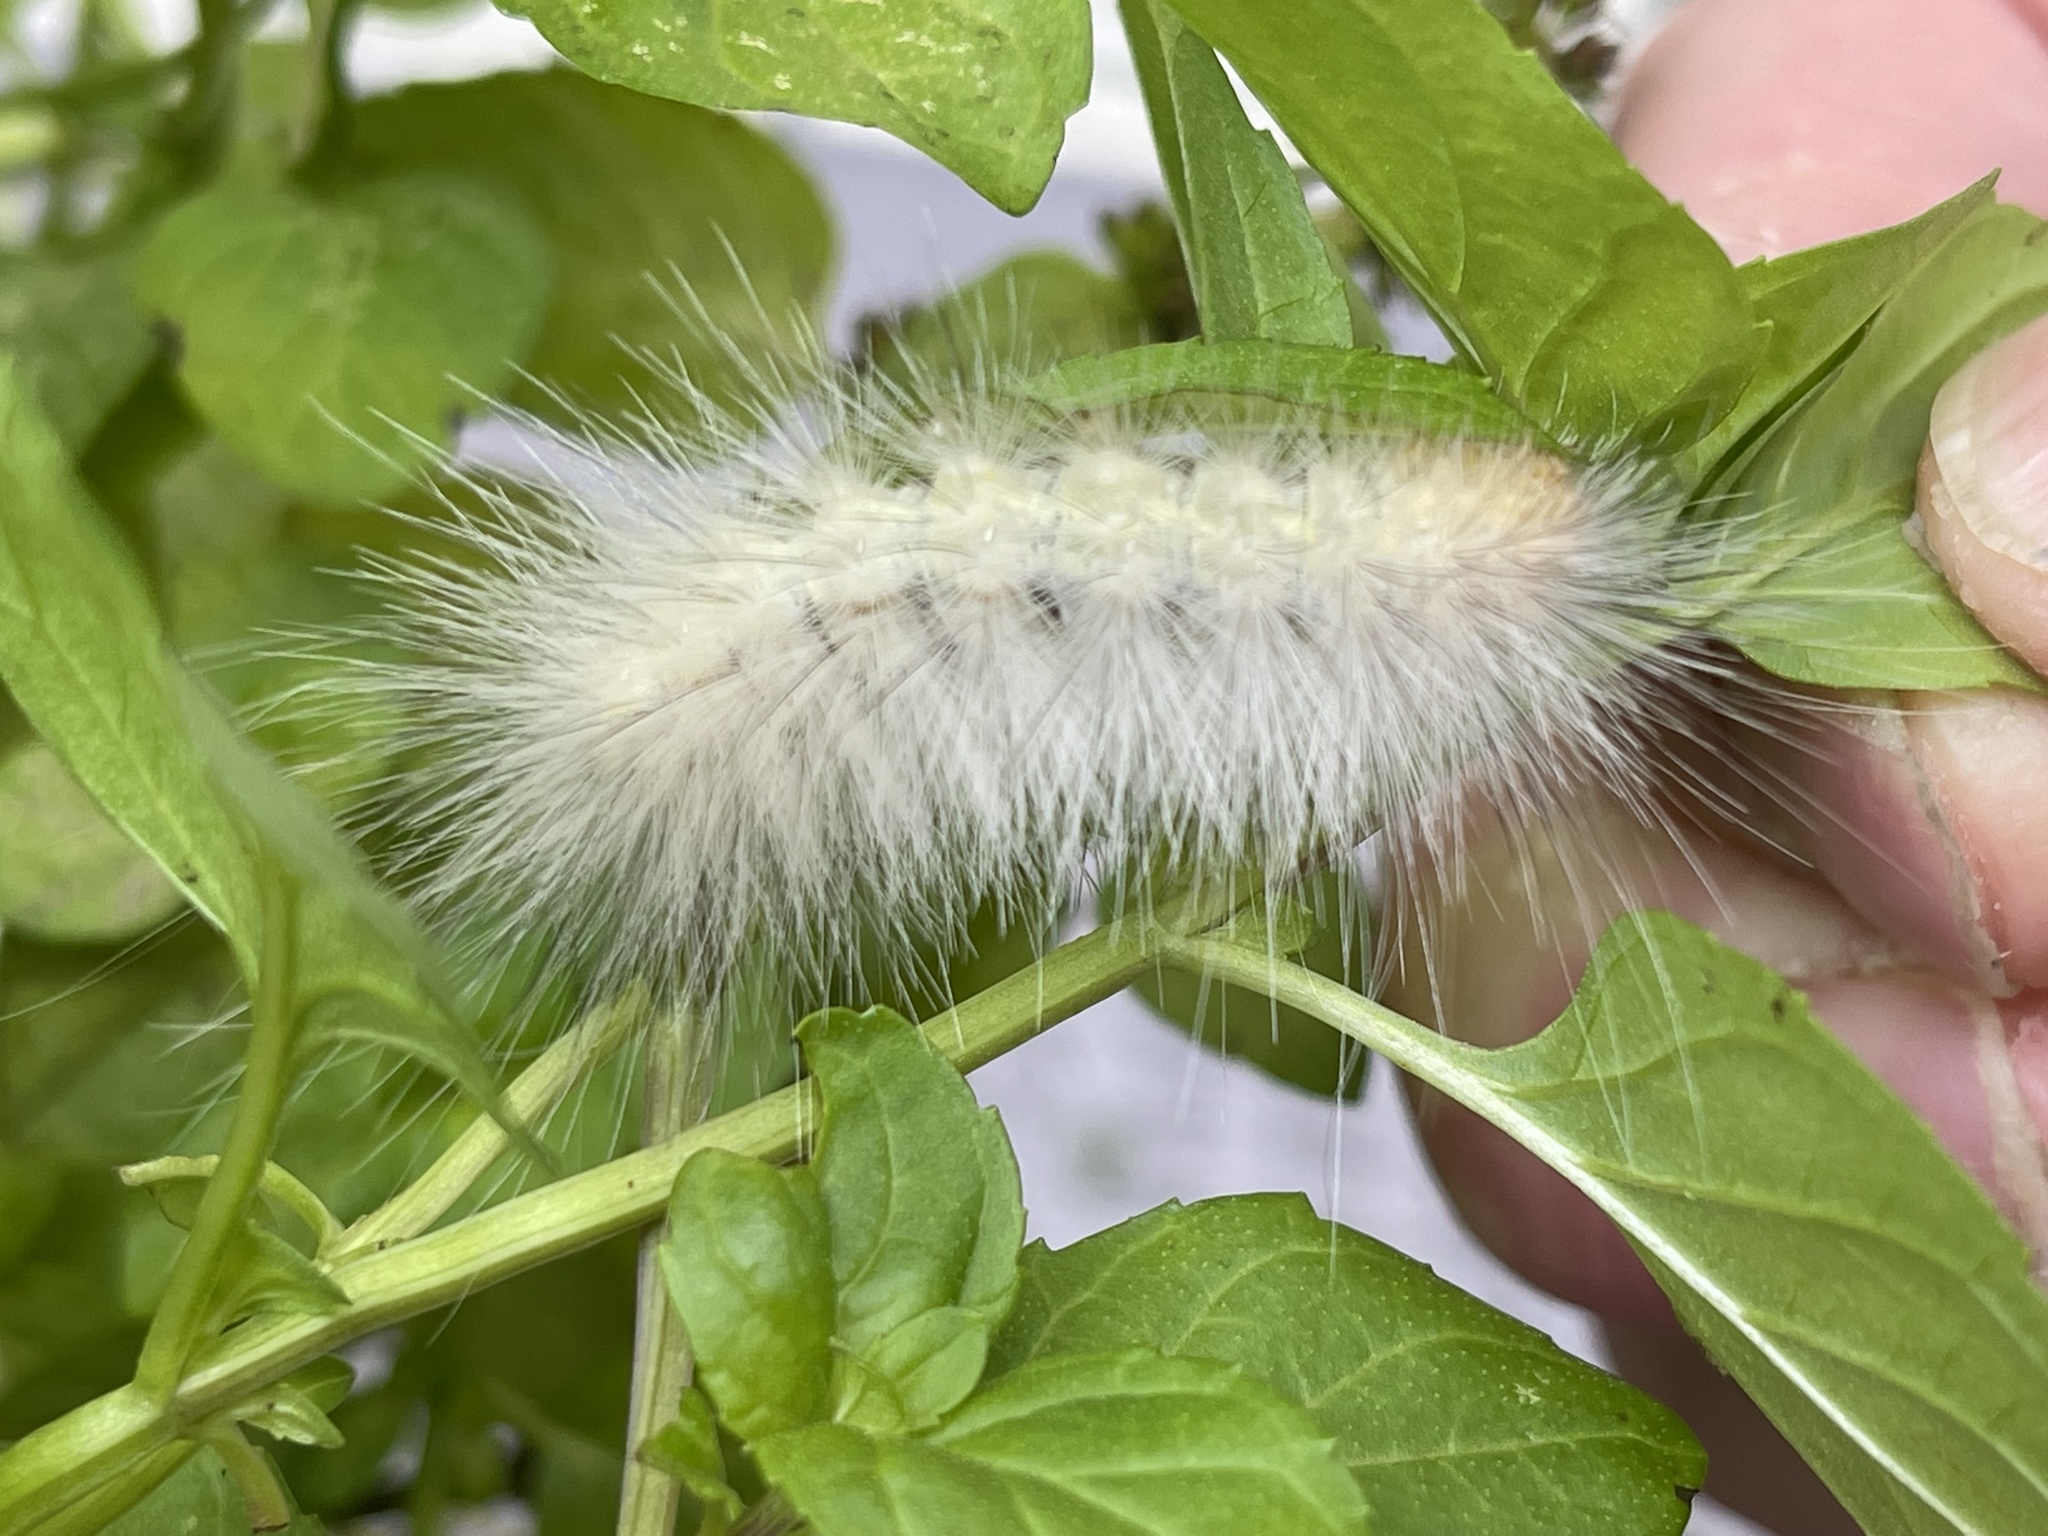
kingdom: Animalia
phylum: Arthropoda
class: Insecta
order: Lepidoptera
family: Erebidae
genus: Spilosoma
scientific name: Spilosoma virginica
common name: Virginia tiger moth
